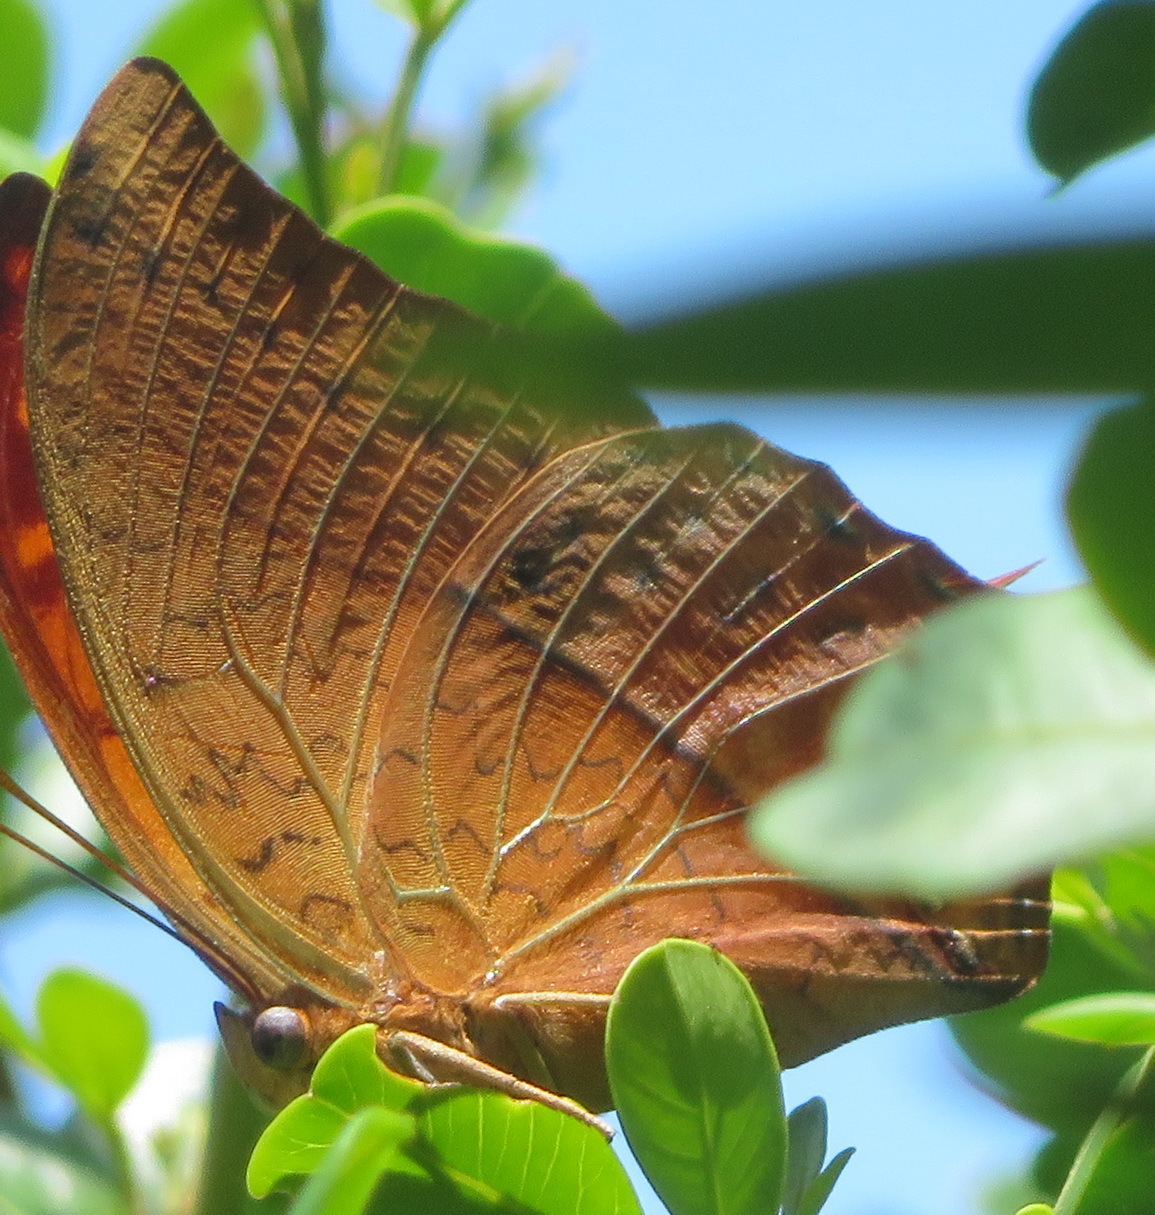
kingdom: Animalia
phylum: Arthropoda
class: Insecta
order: Lepidoptera
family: Nymphalidae
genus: Charaxes
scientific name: Charaxes varanes
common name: Common pearl charaxes
